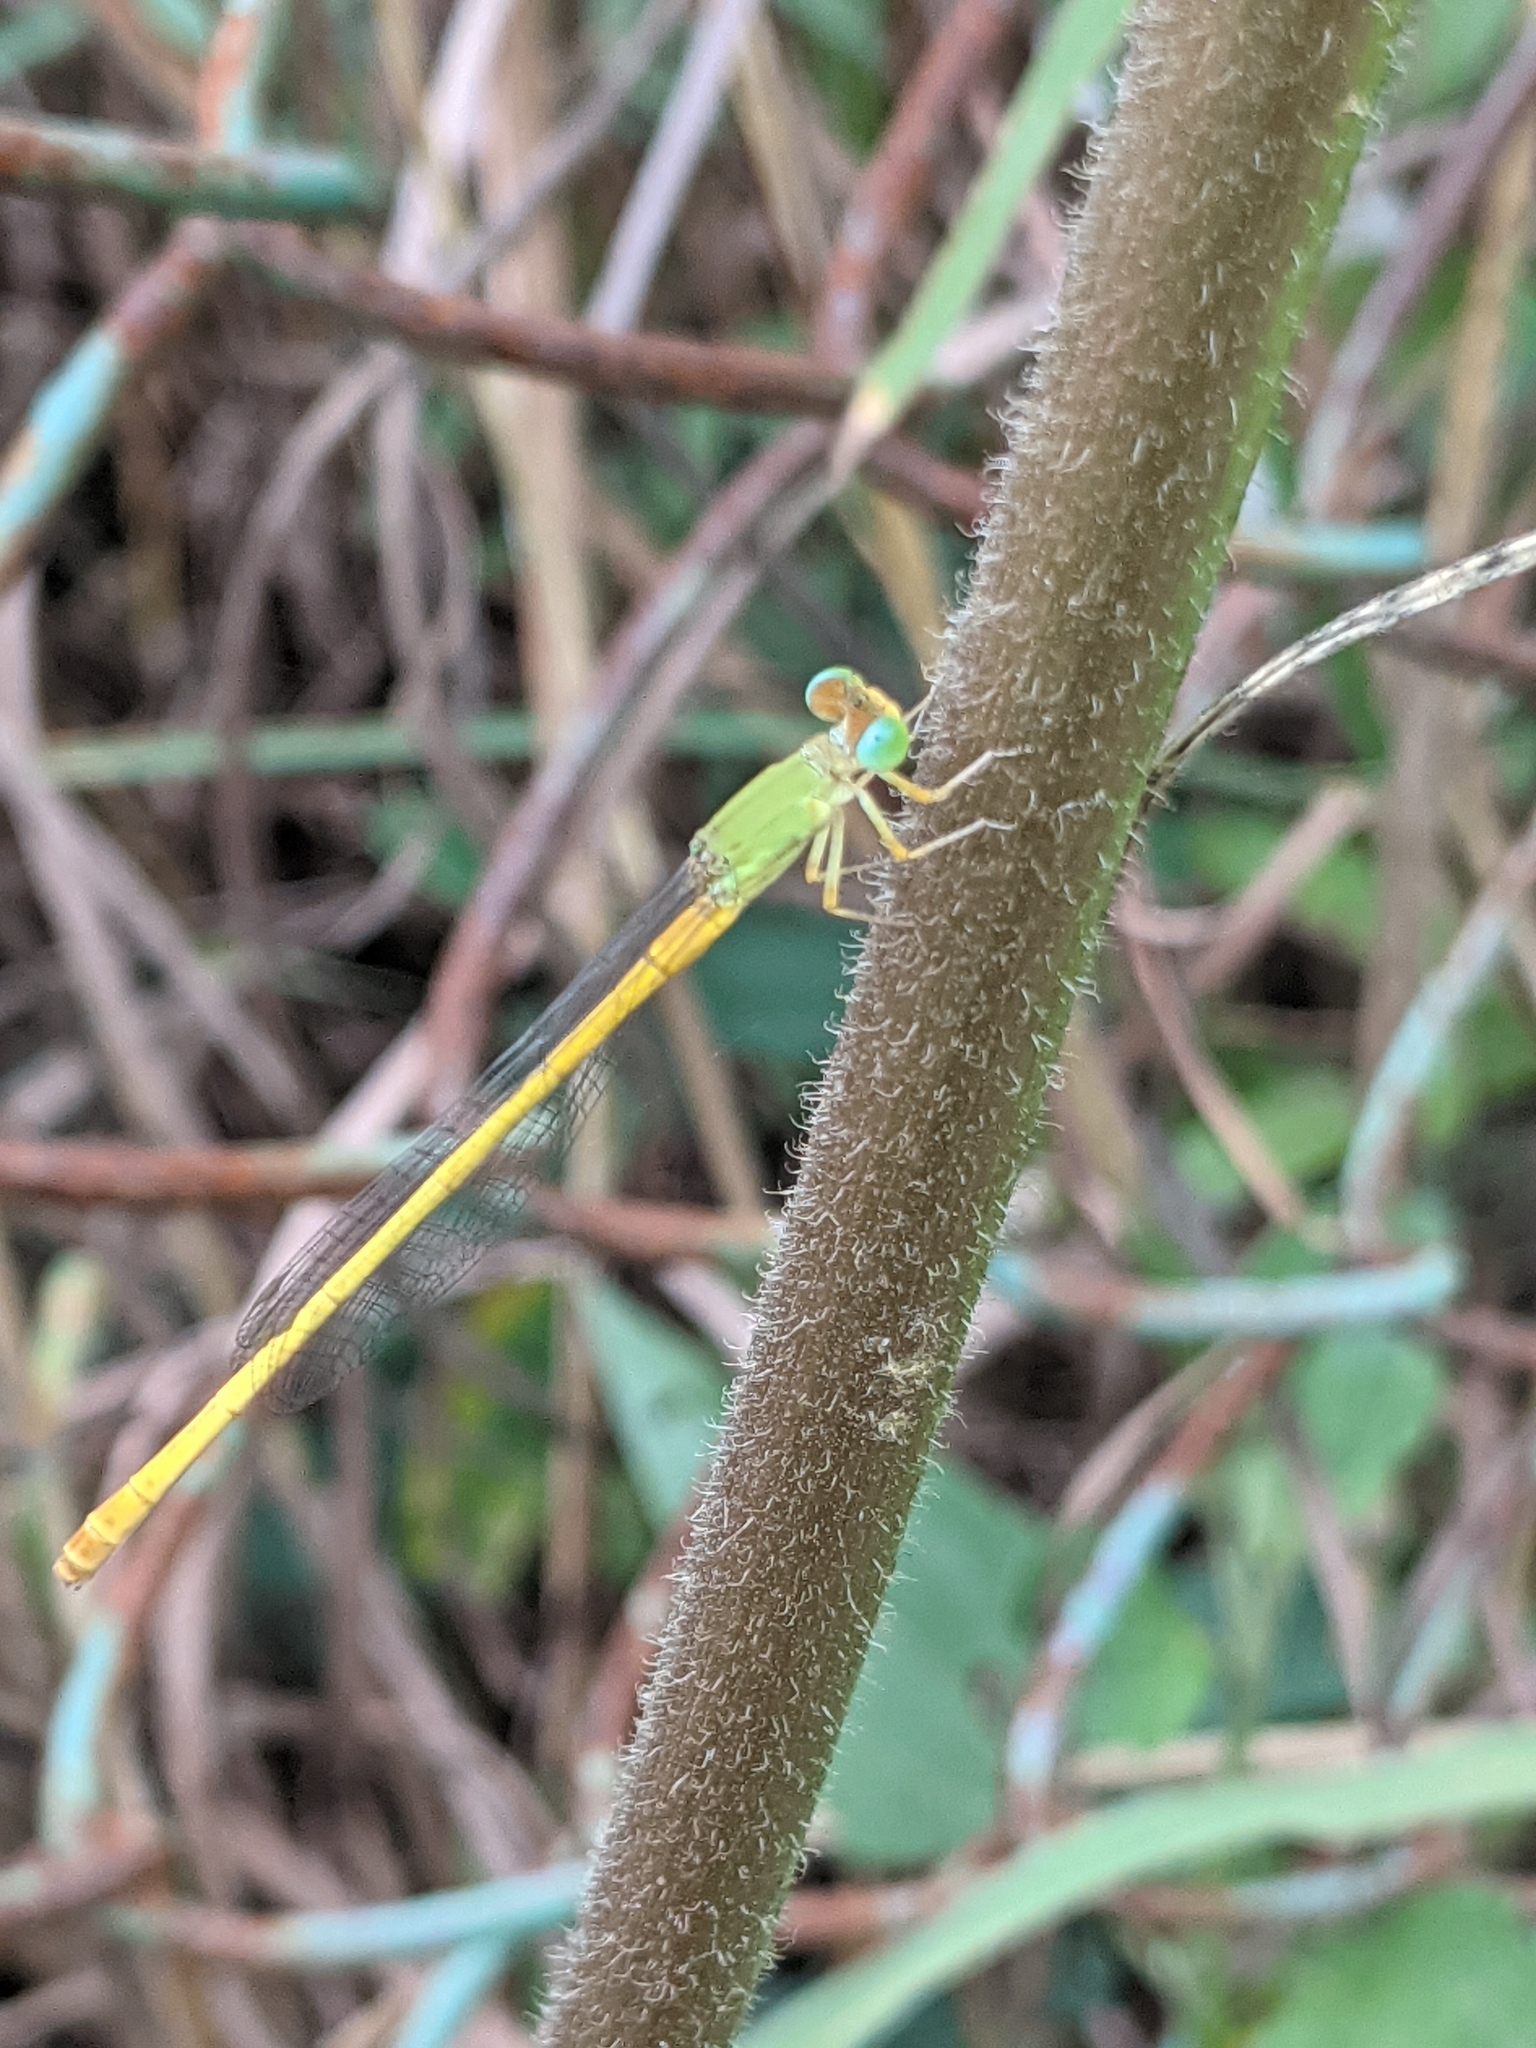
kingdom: Animalia
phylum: Arthropoda
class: Insecta
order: Odonata
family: Coenagrionidae
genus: Ceriagrion
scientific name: Ceriagrion coromandelianum
